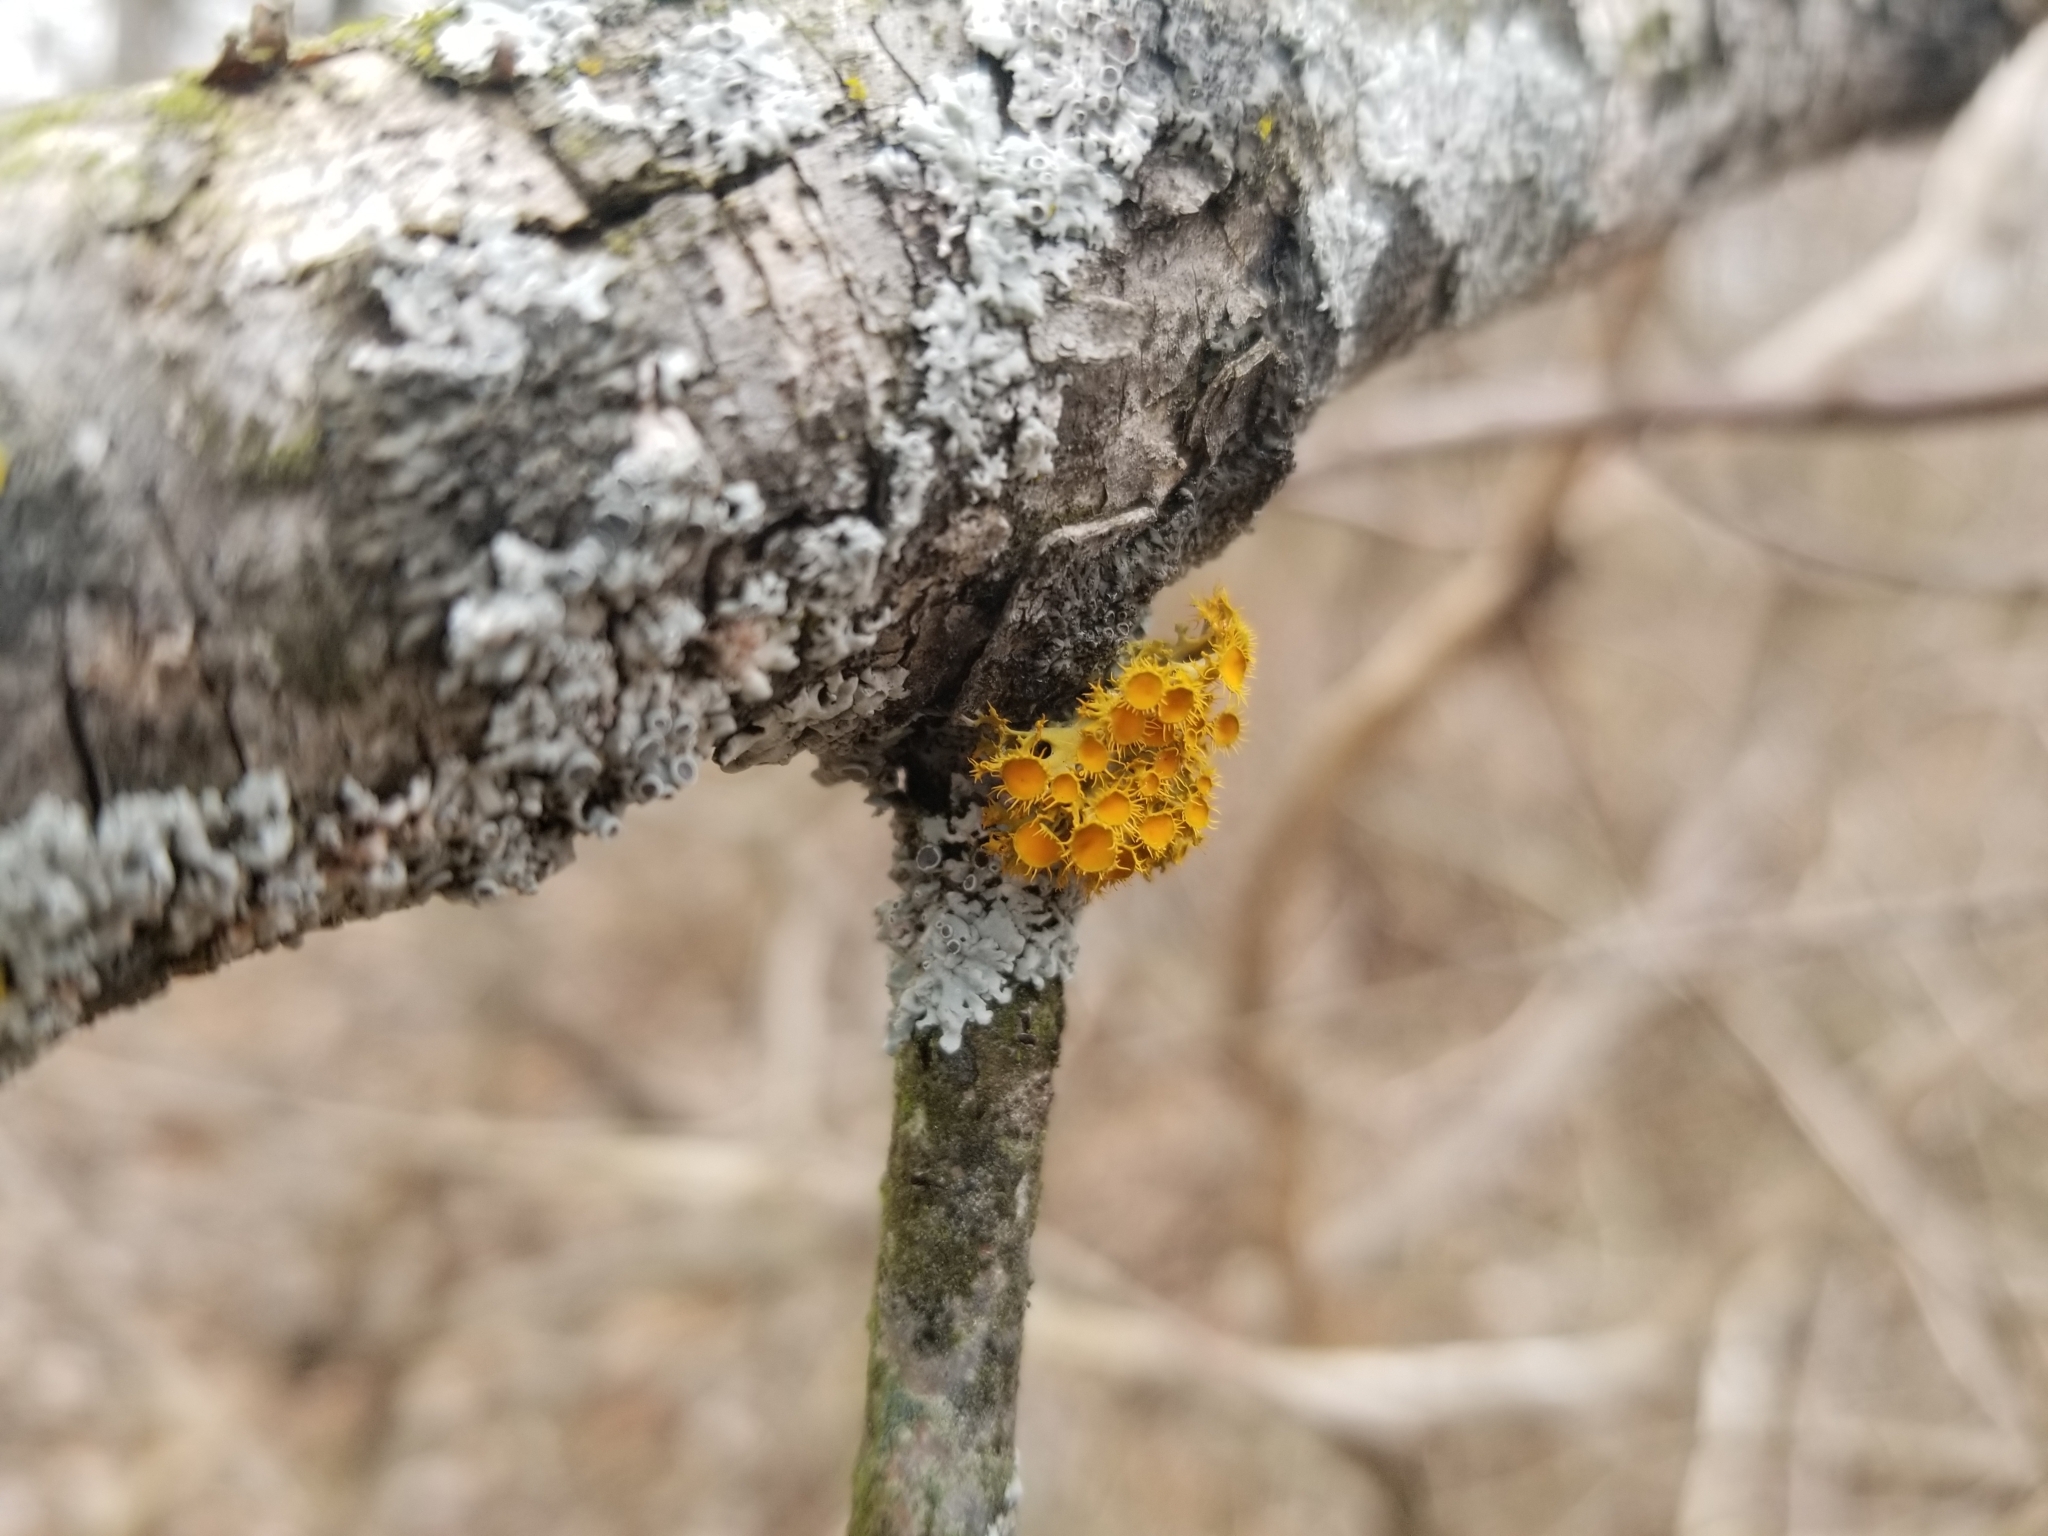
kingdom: Fungi
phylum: Ascomycota
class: Lecanoromycetes
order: Teloschistales
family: Teloschistaceae
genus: Niorma
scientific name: Niorma chrysophthalma
